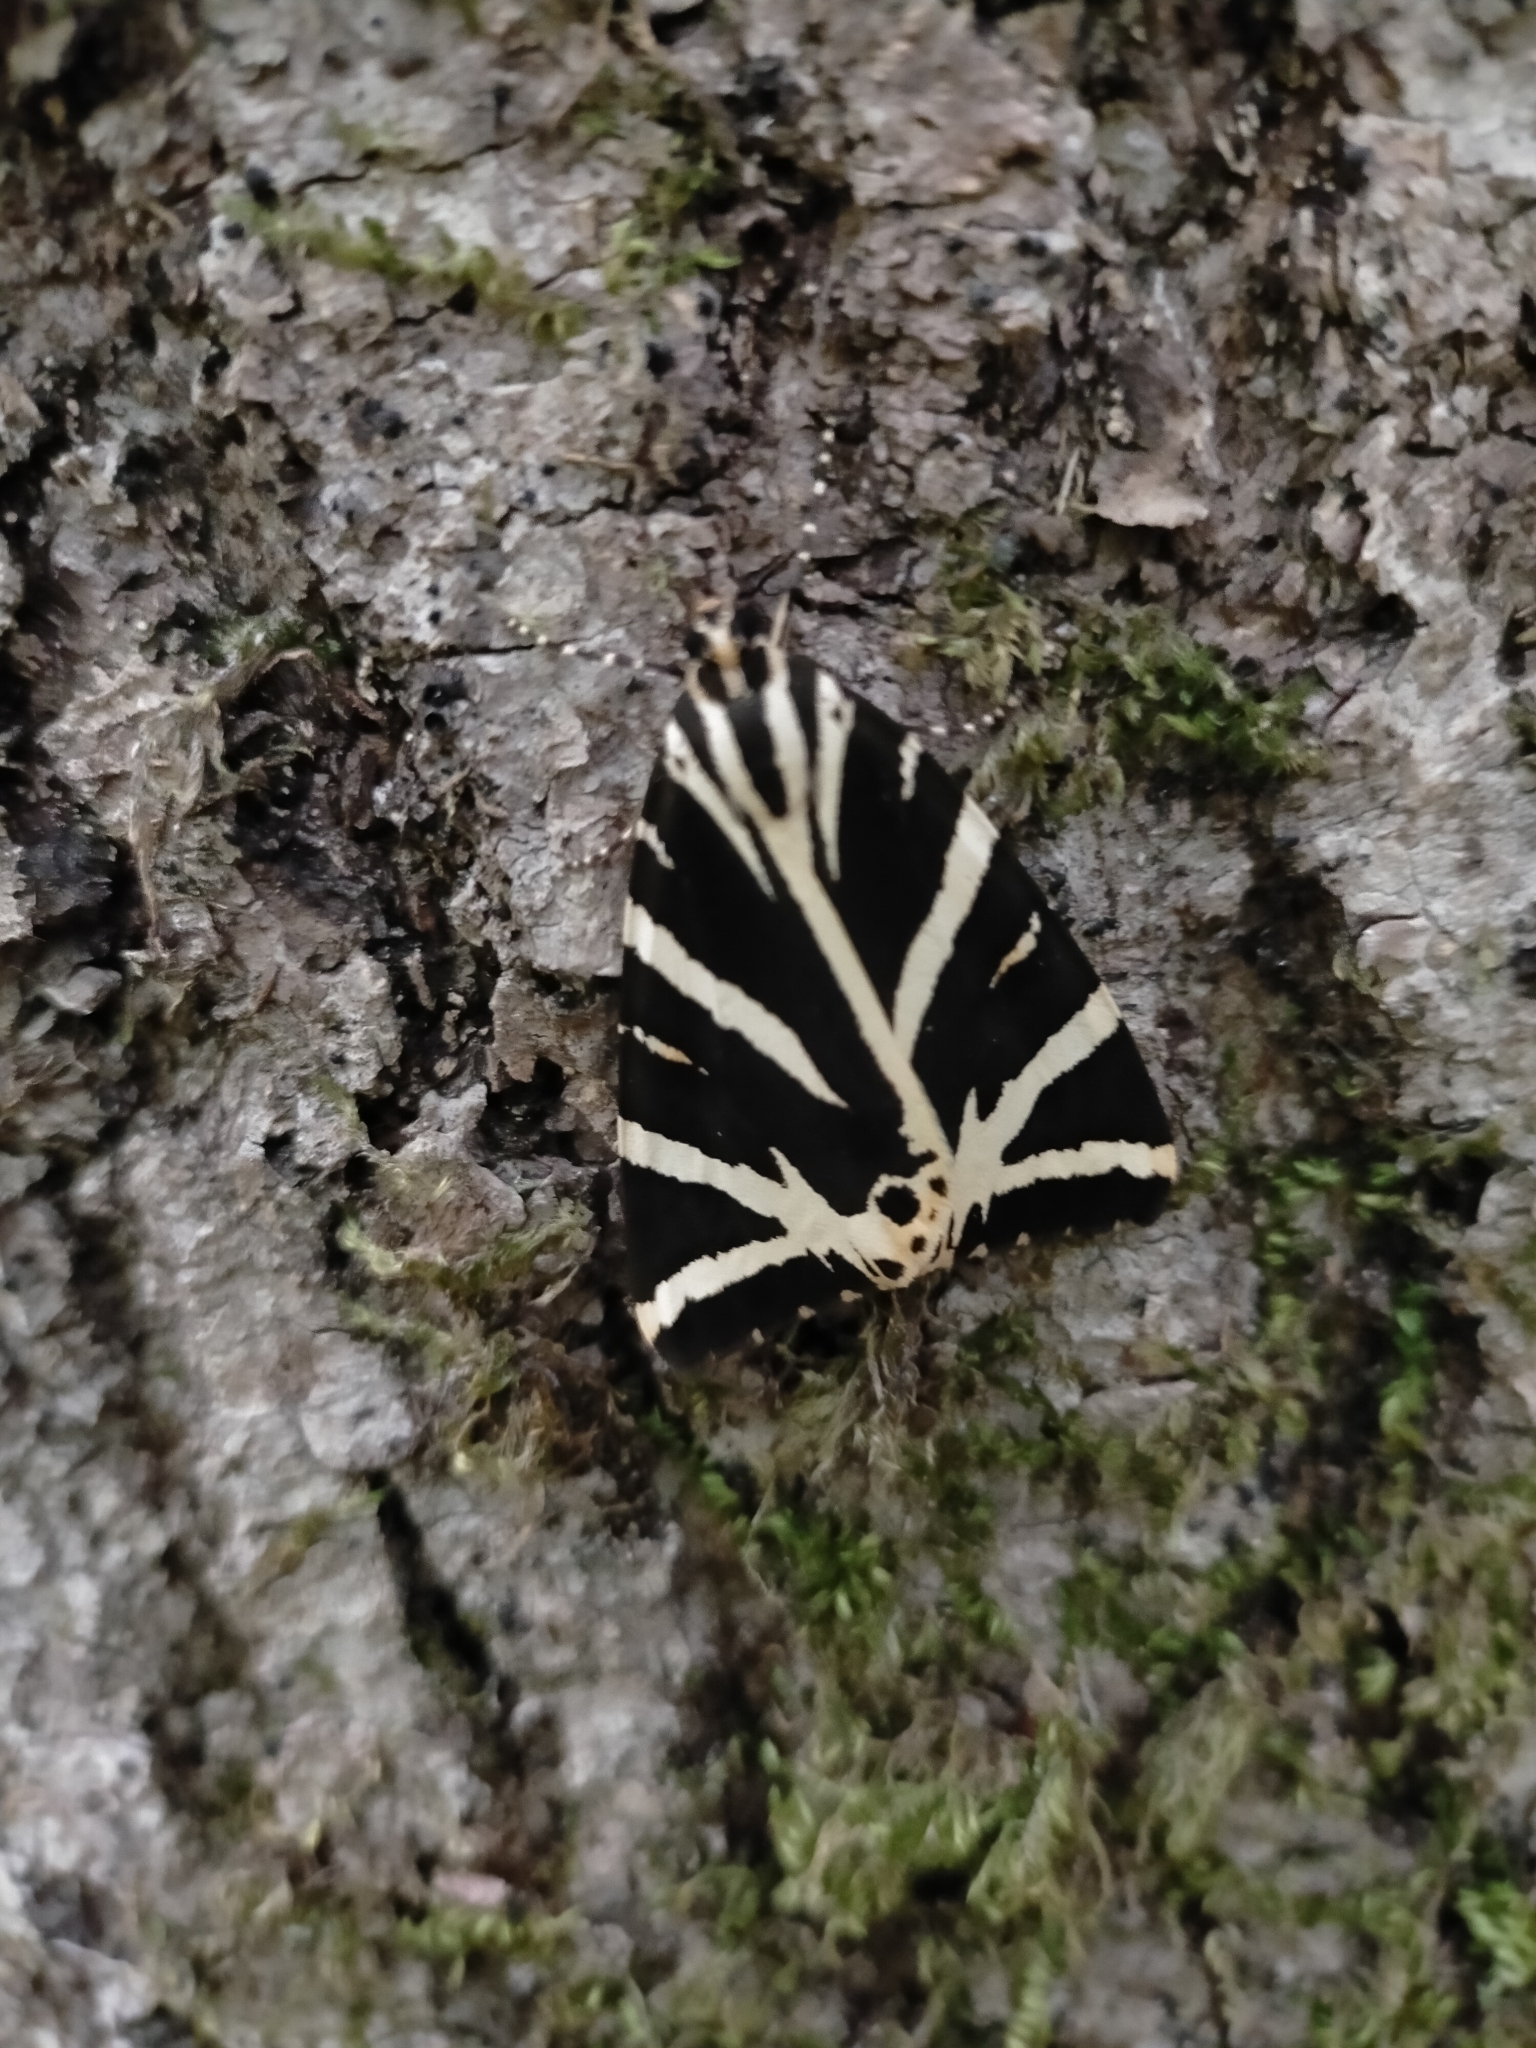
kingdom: Animalia
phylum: Arthropoda
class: Insecta
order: Lepidoptera
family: Erebidae
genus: Euplagia
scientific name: Euplagia quadripunctaria
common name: Jersey tiger
